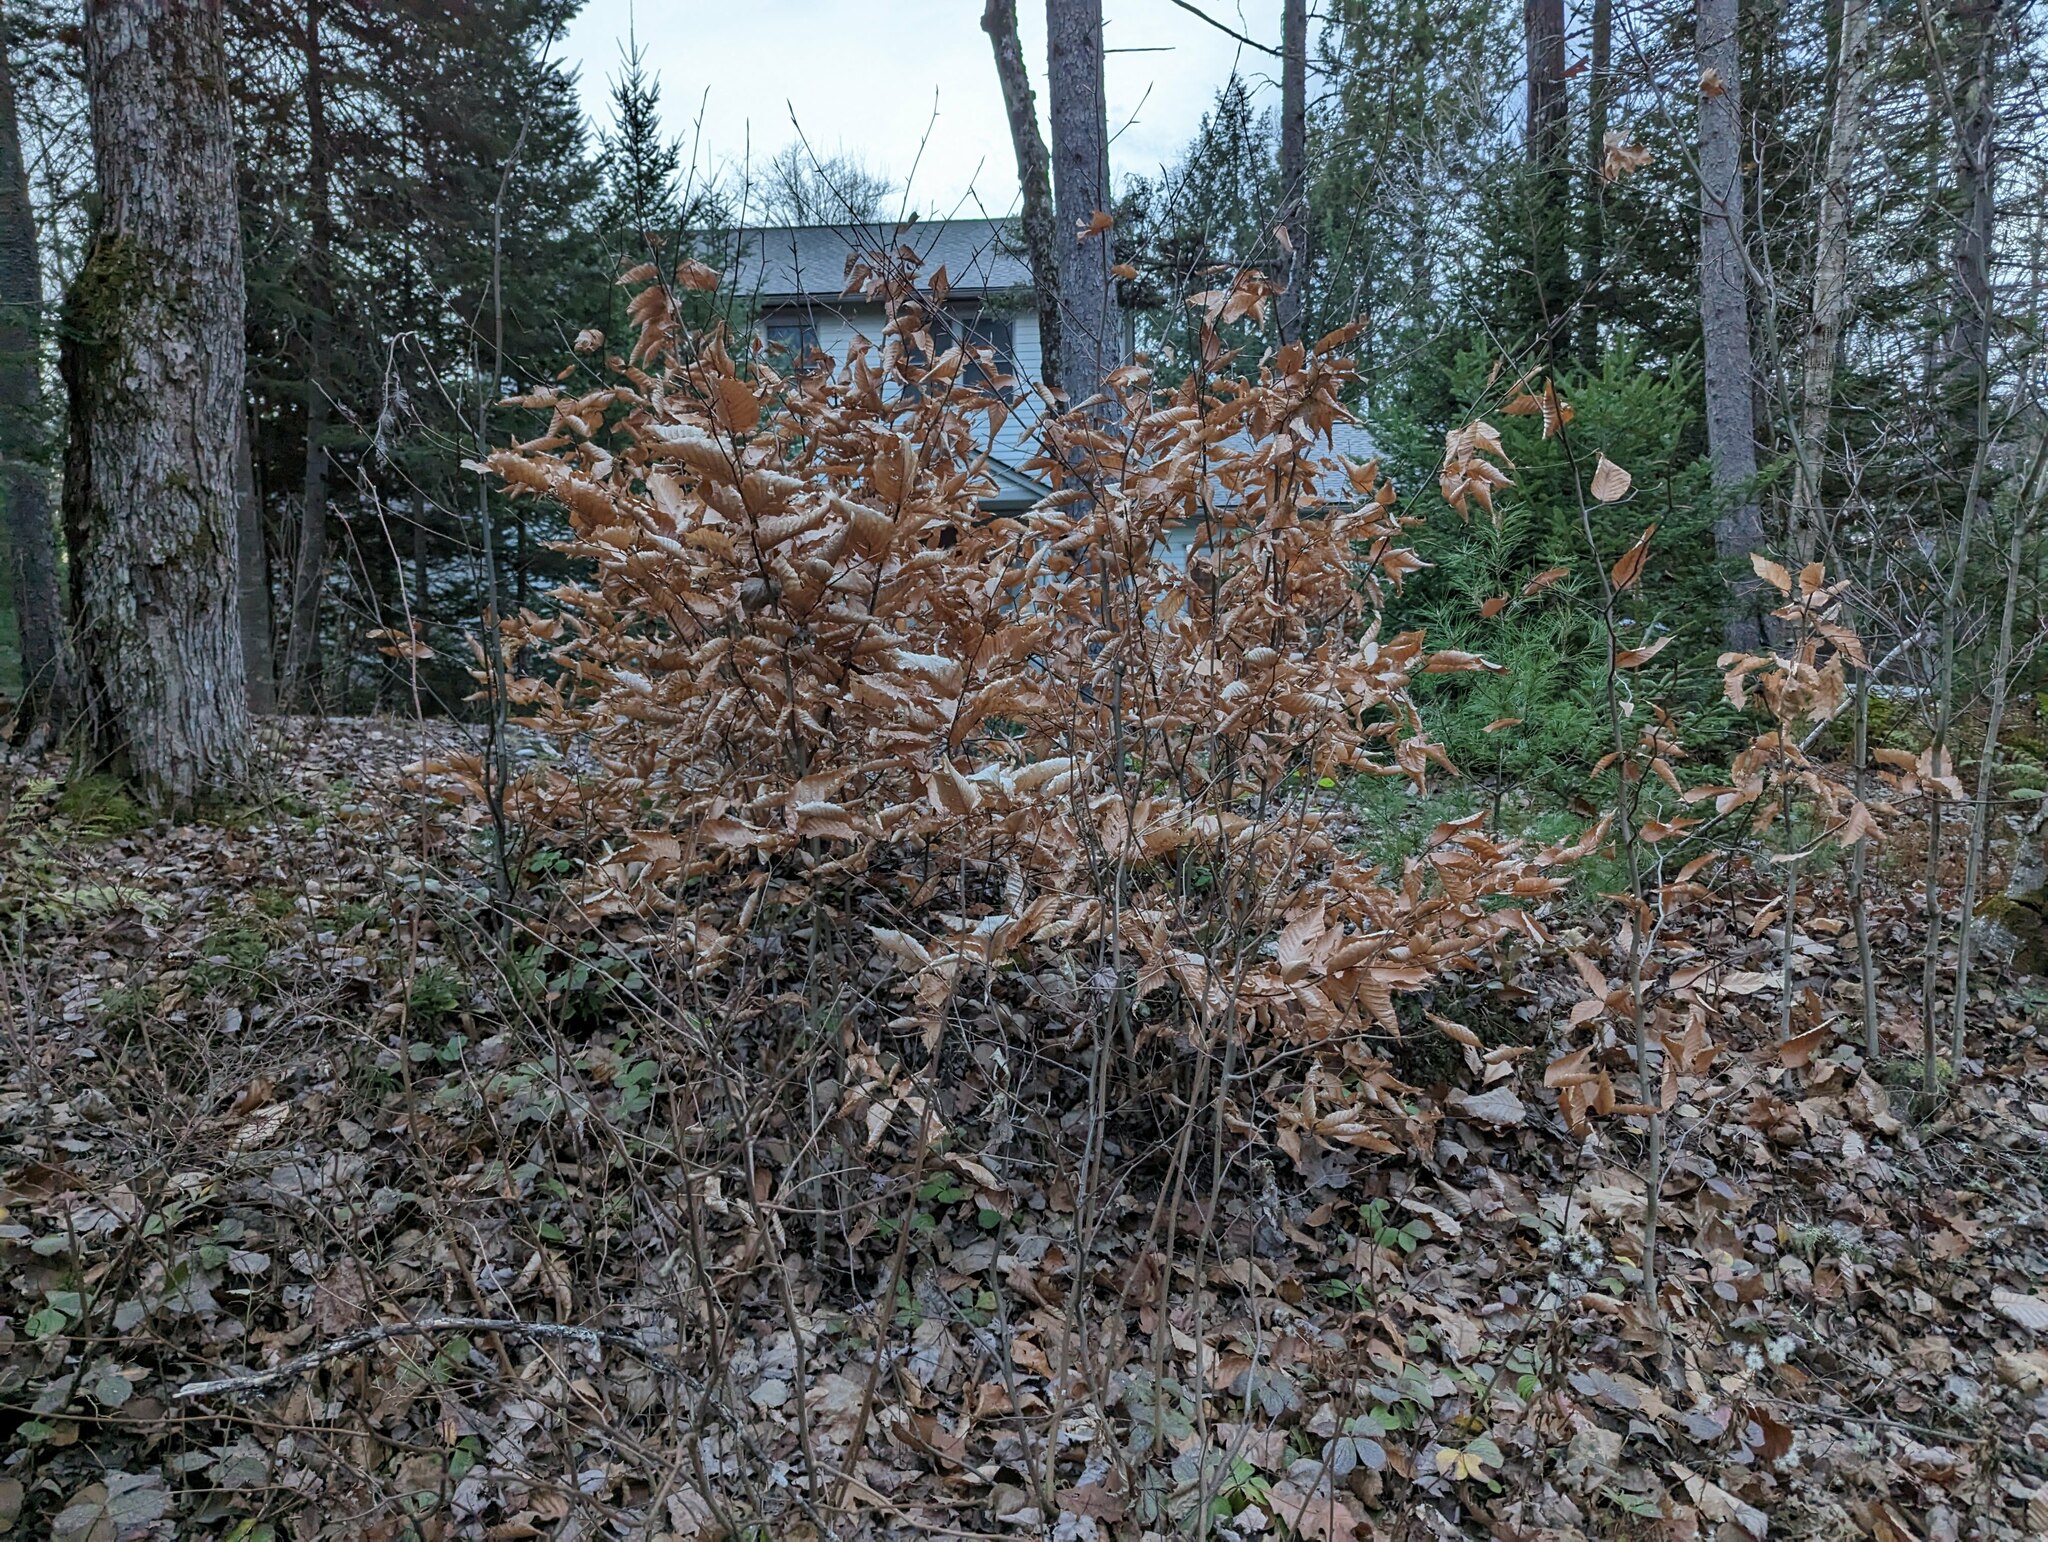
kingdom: Plantae
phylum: Tracheophyta
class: Magnoliopsida
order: Fagales
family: Fagaceae
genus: Fagus
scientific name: Fagus grandifolia
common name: American beech
